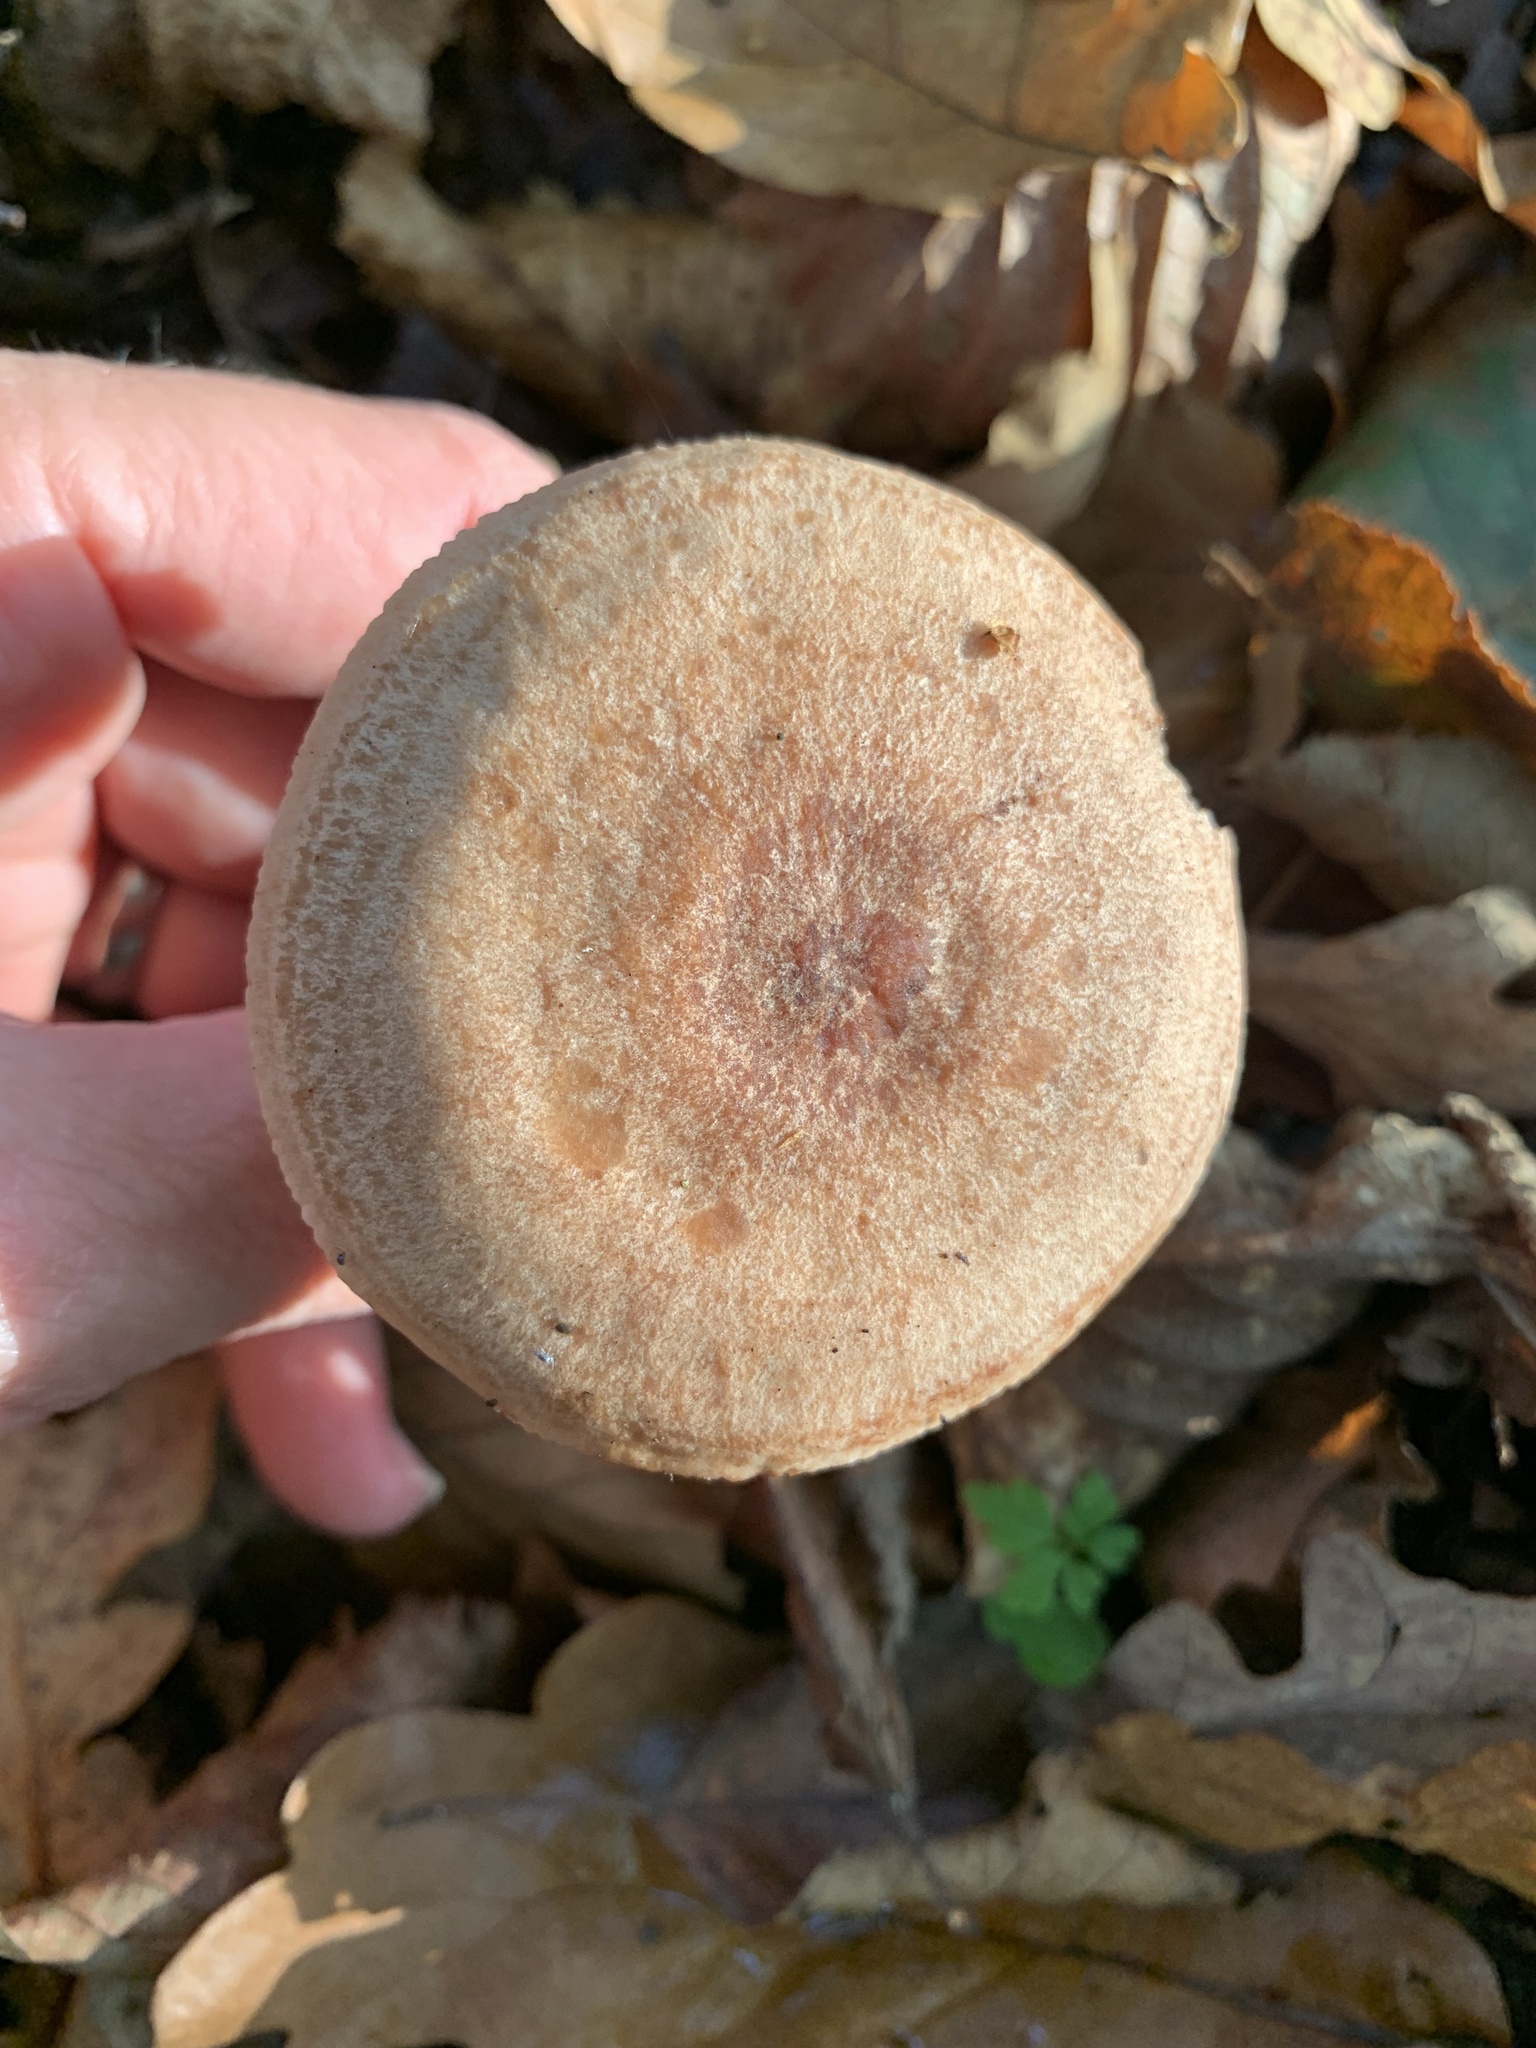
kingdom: Fungi
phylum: Basidiomycota
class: Agaricomycetes
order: Russulales
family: Russulaceae
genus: Lactarius
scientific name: Lactarius quietus
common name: Oak milk-cap
